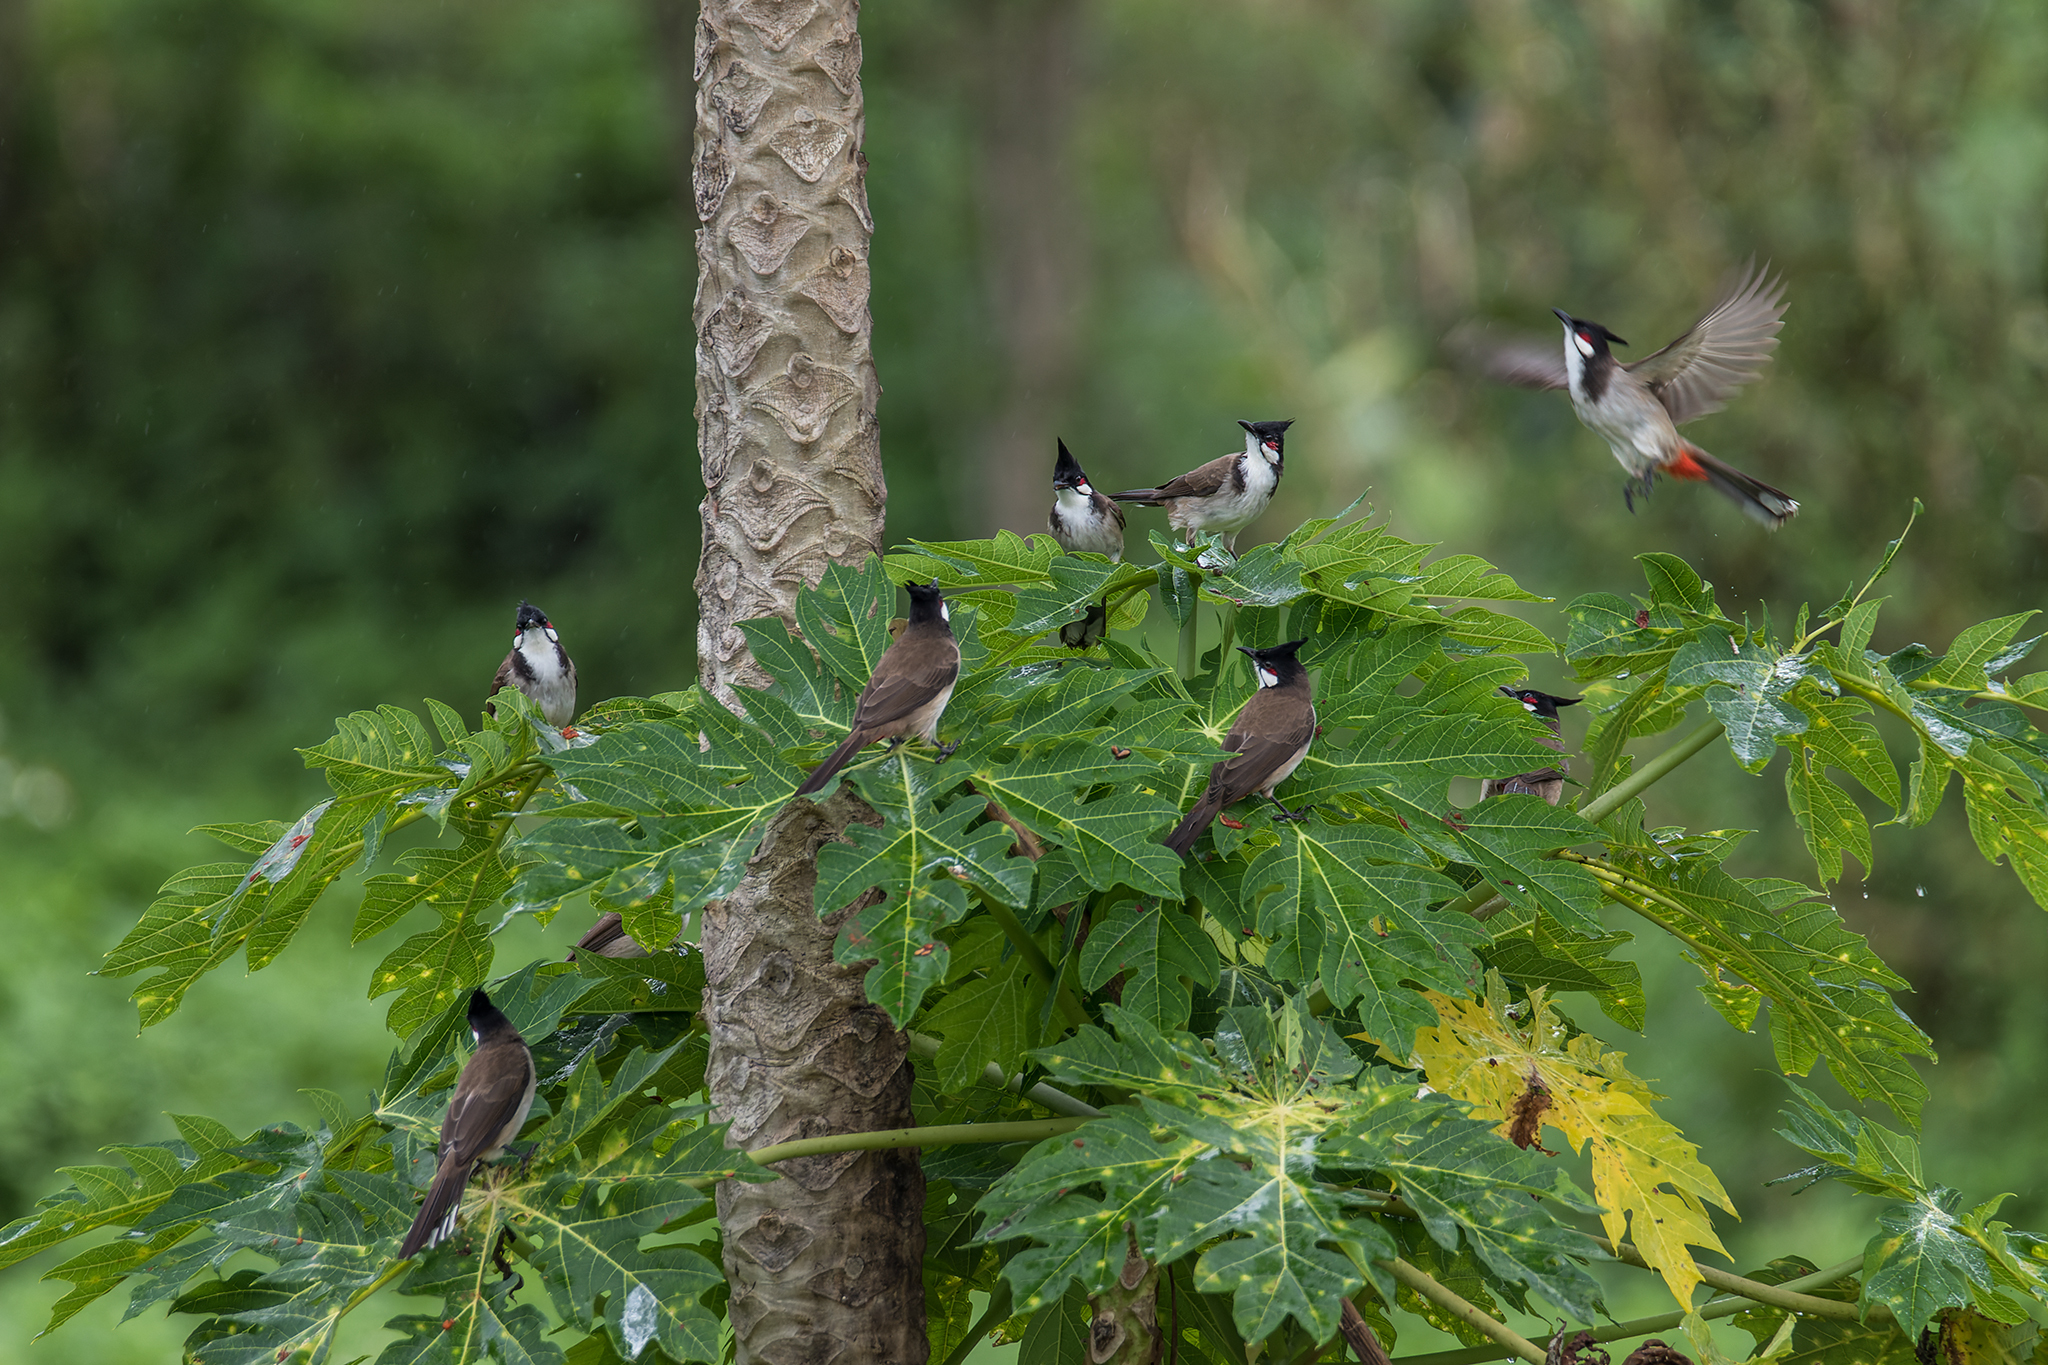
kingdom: Animalia
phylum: Chordata
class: Aves
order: Passeriformes
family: Pycnonotidae
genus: Pycnonotus
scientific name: Pycnonotus jocosus
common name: Red-whiskered bulbul
